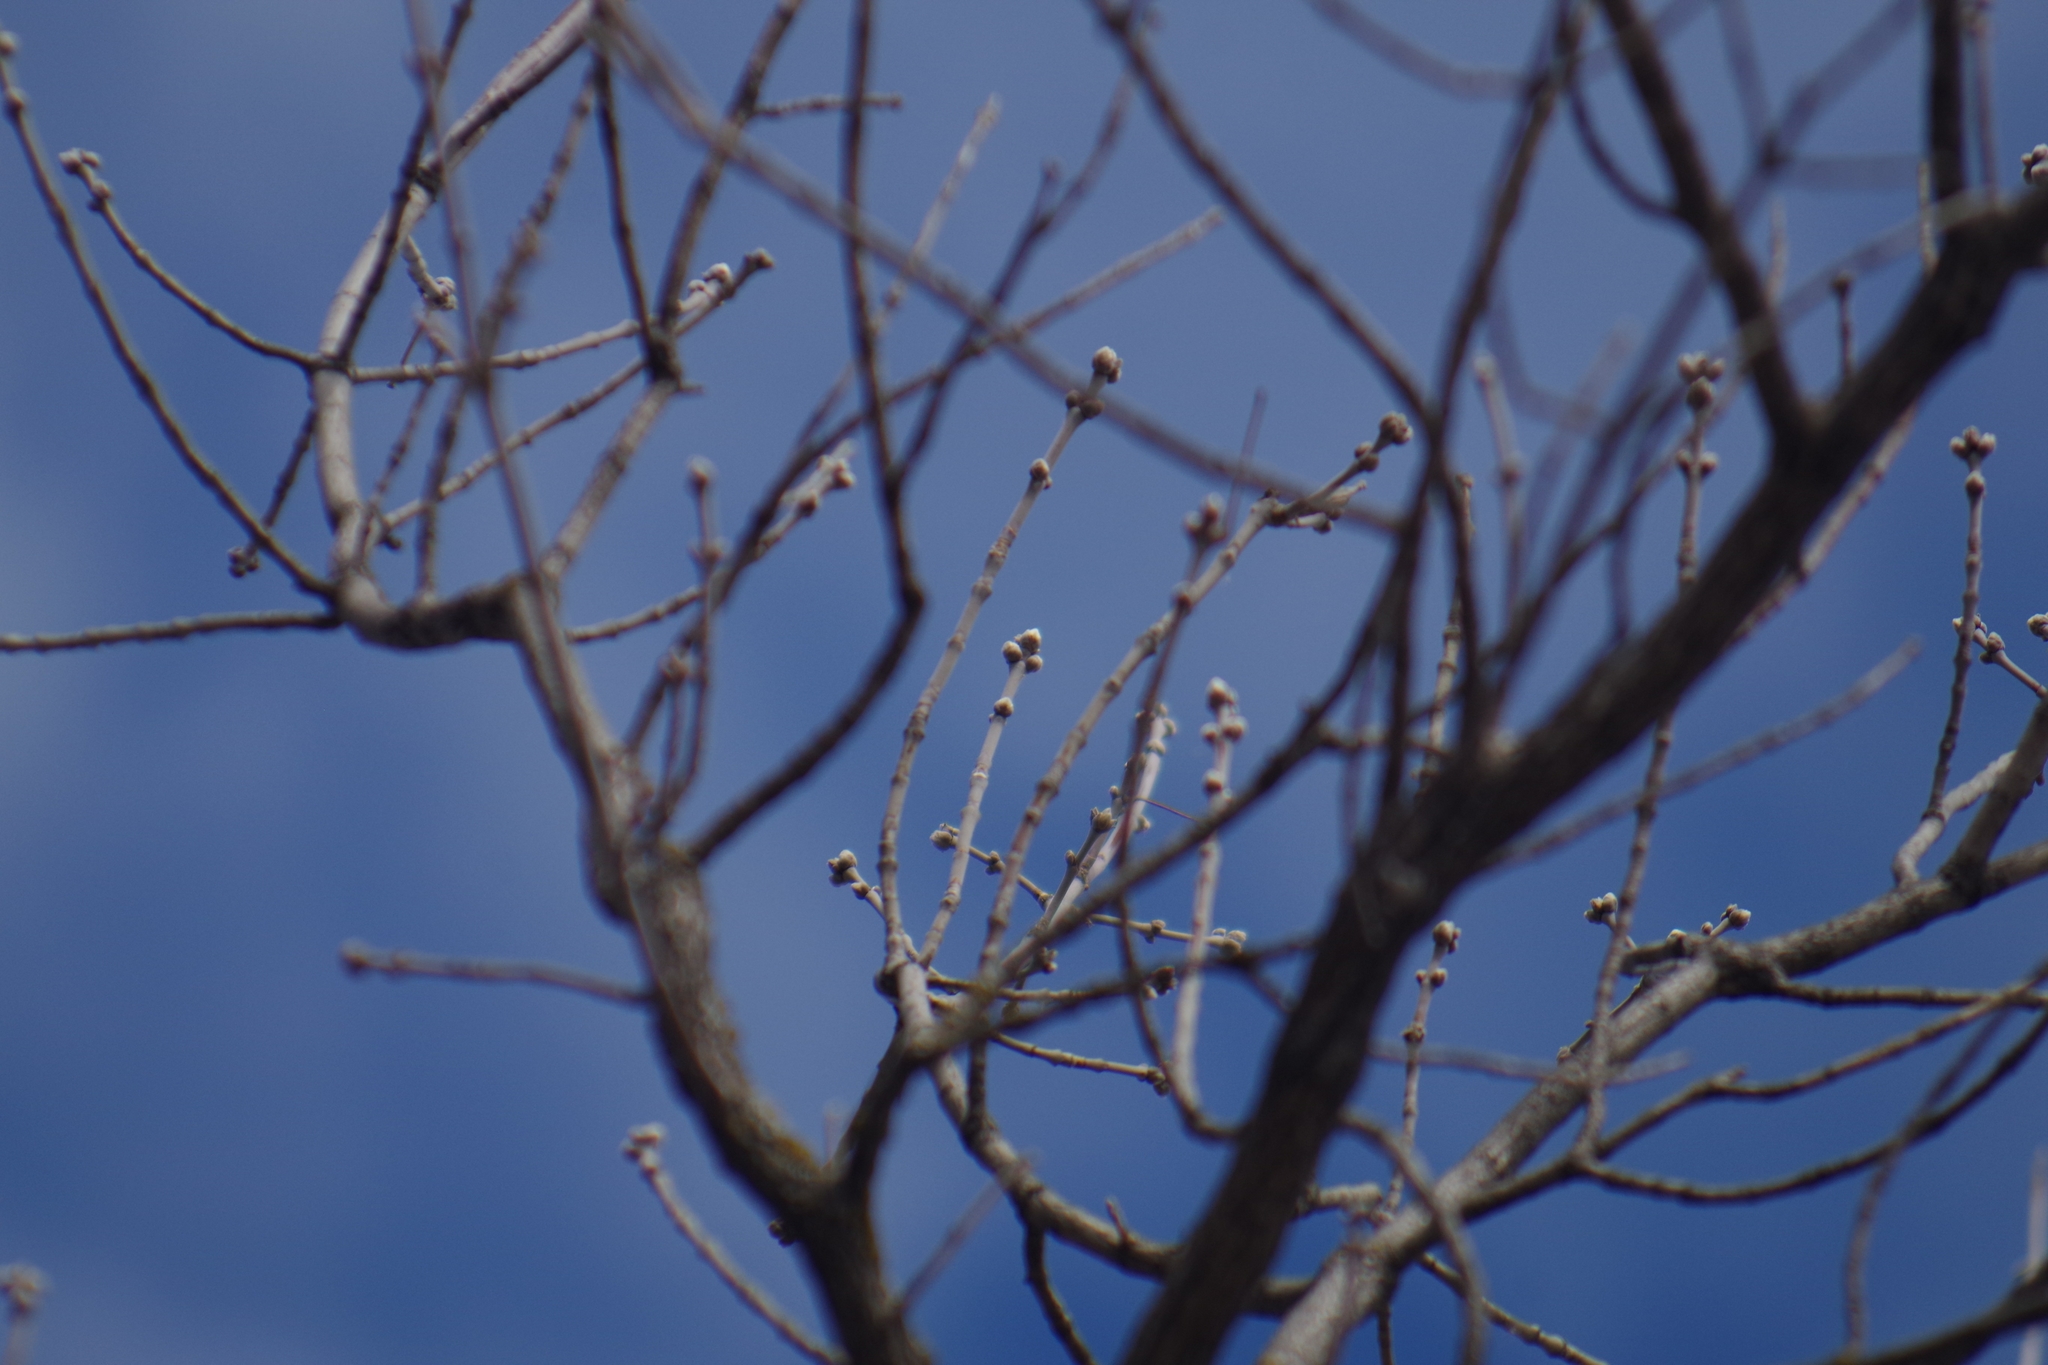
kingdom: Plantae
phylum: Tracheophyta
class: Magnoliopsida
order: Sapindales
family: Sapindaceae
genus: Acer
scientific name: Acer negundo
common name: Ashleaf maple
